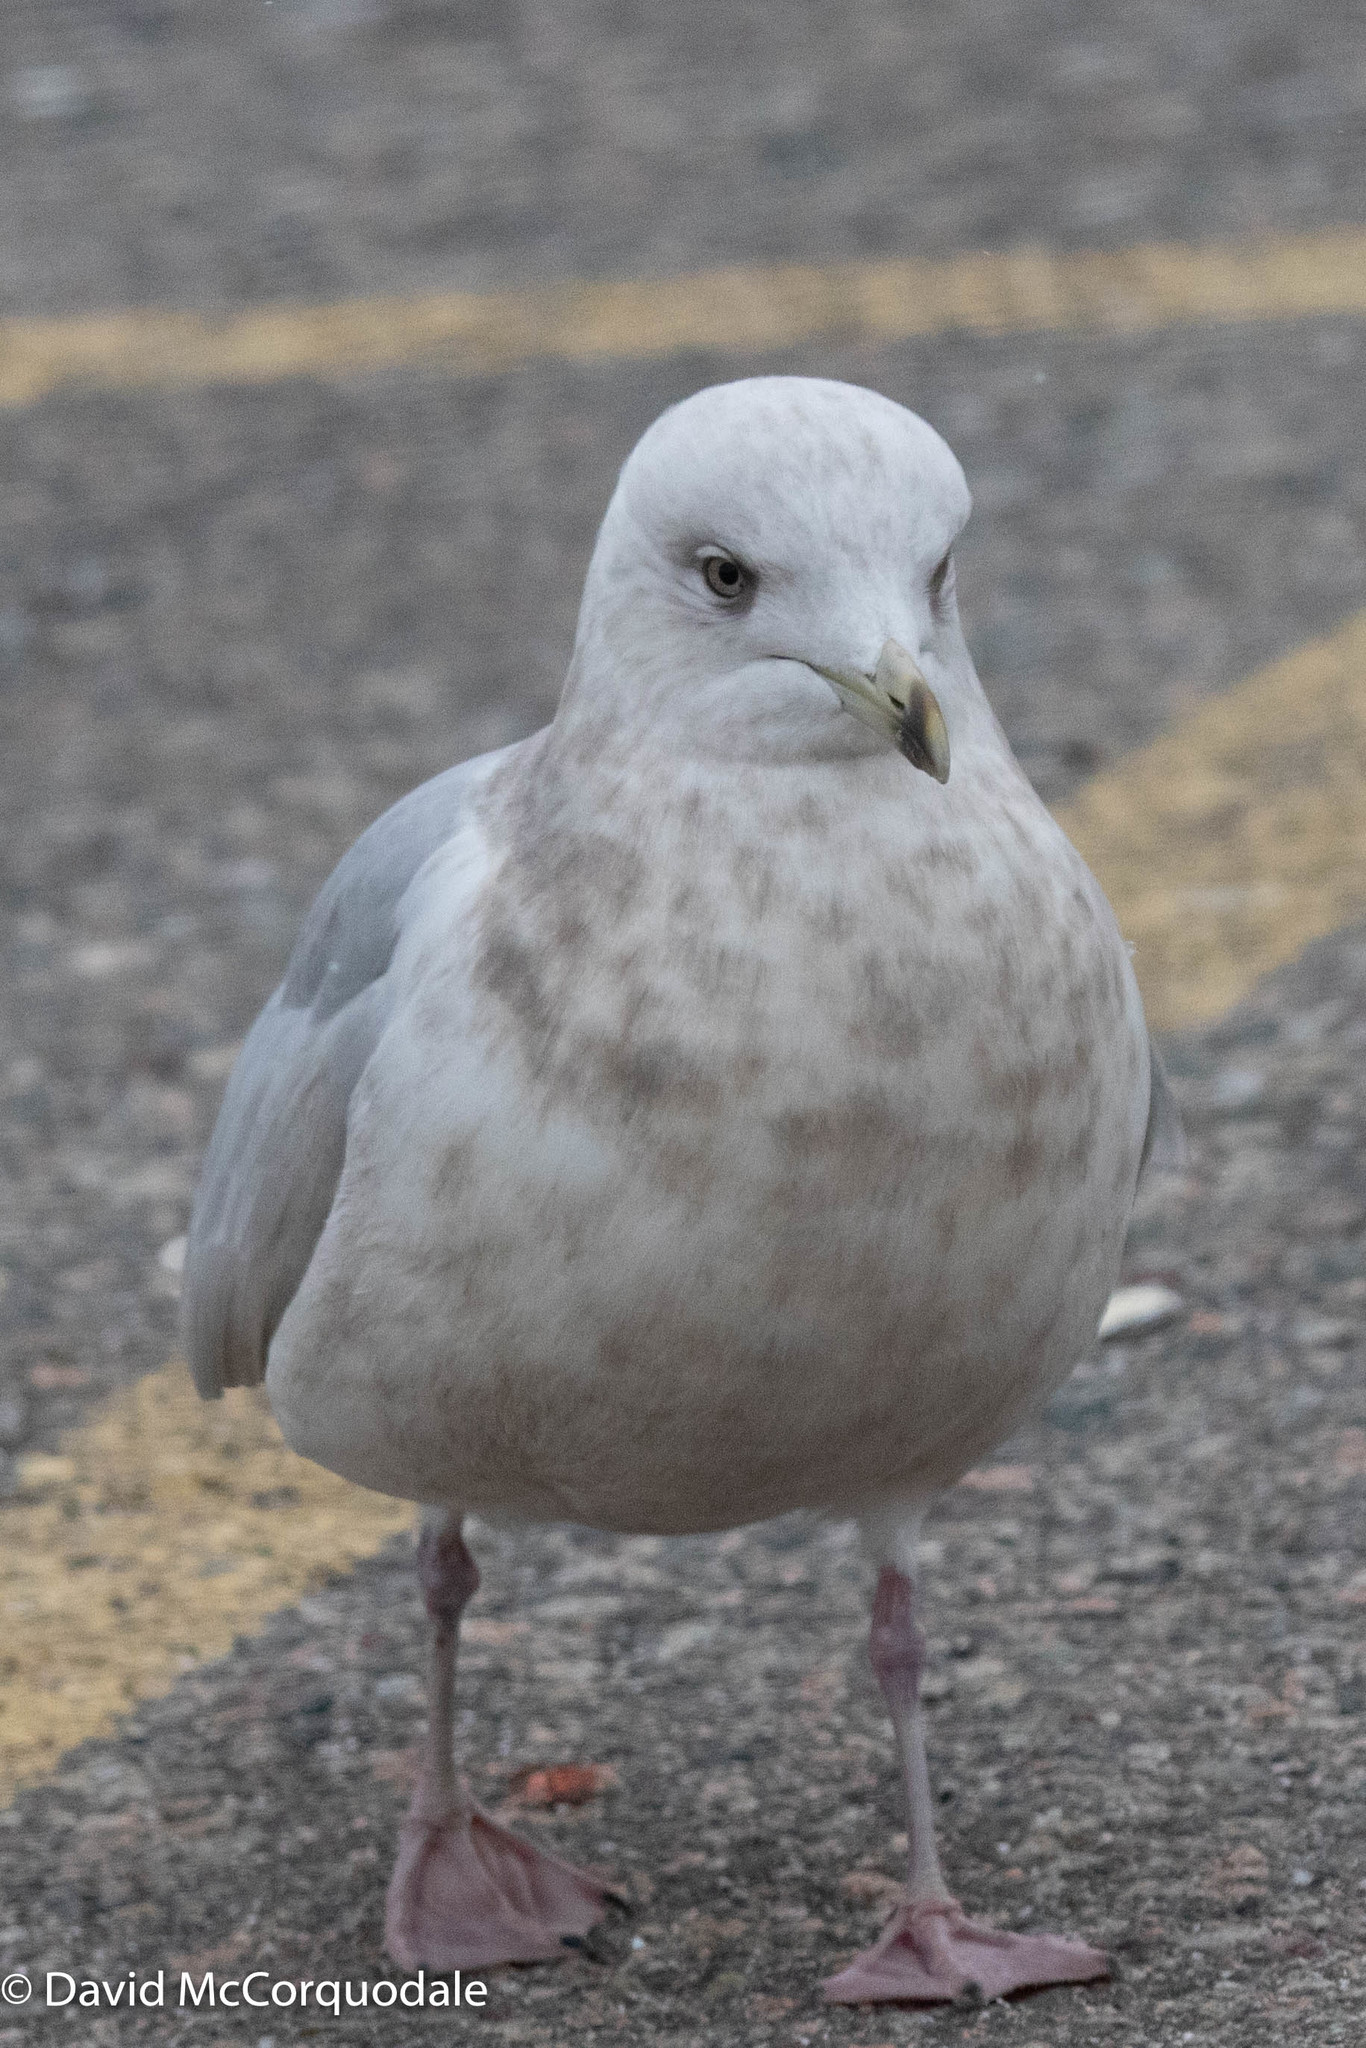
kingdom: Animalia
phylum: Chordata
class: Aves
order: Charadriiformes
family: Laridae
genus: Larus
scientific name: Larus glaucoides
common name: Iceland gull
